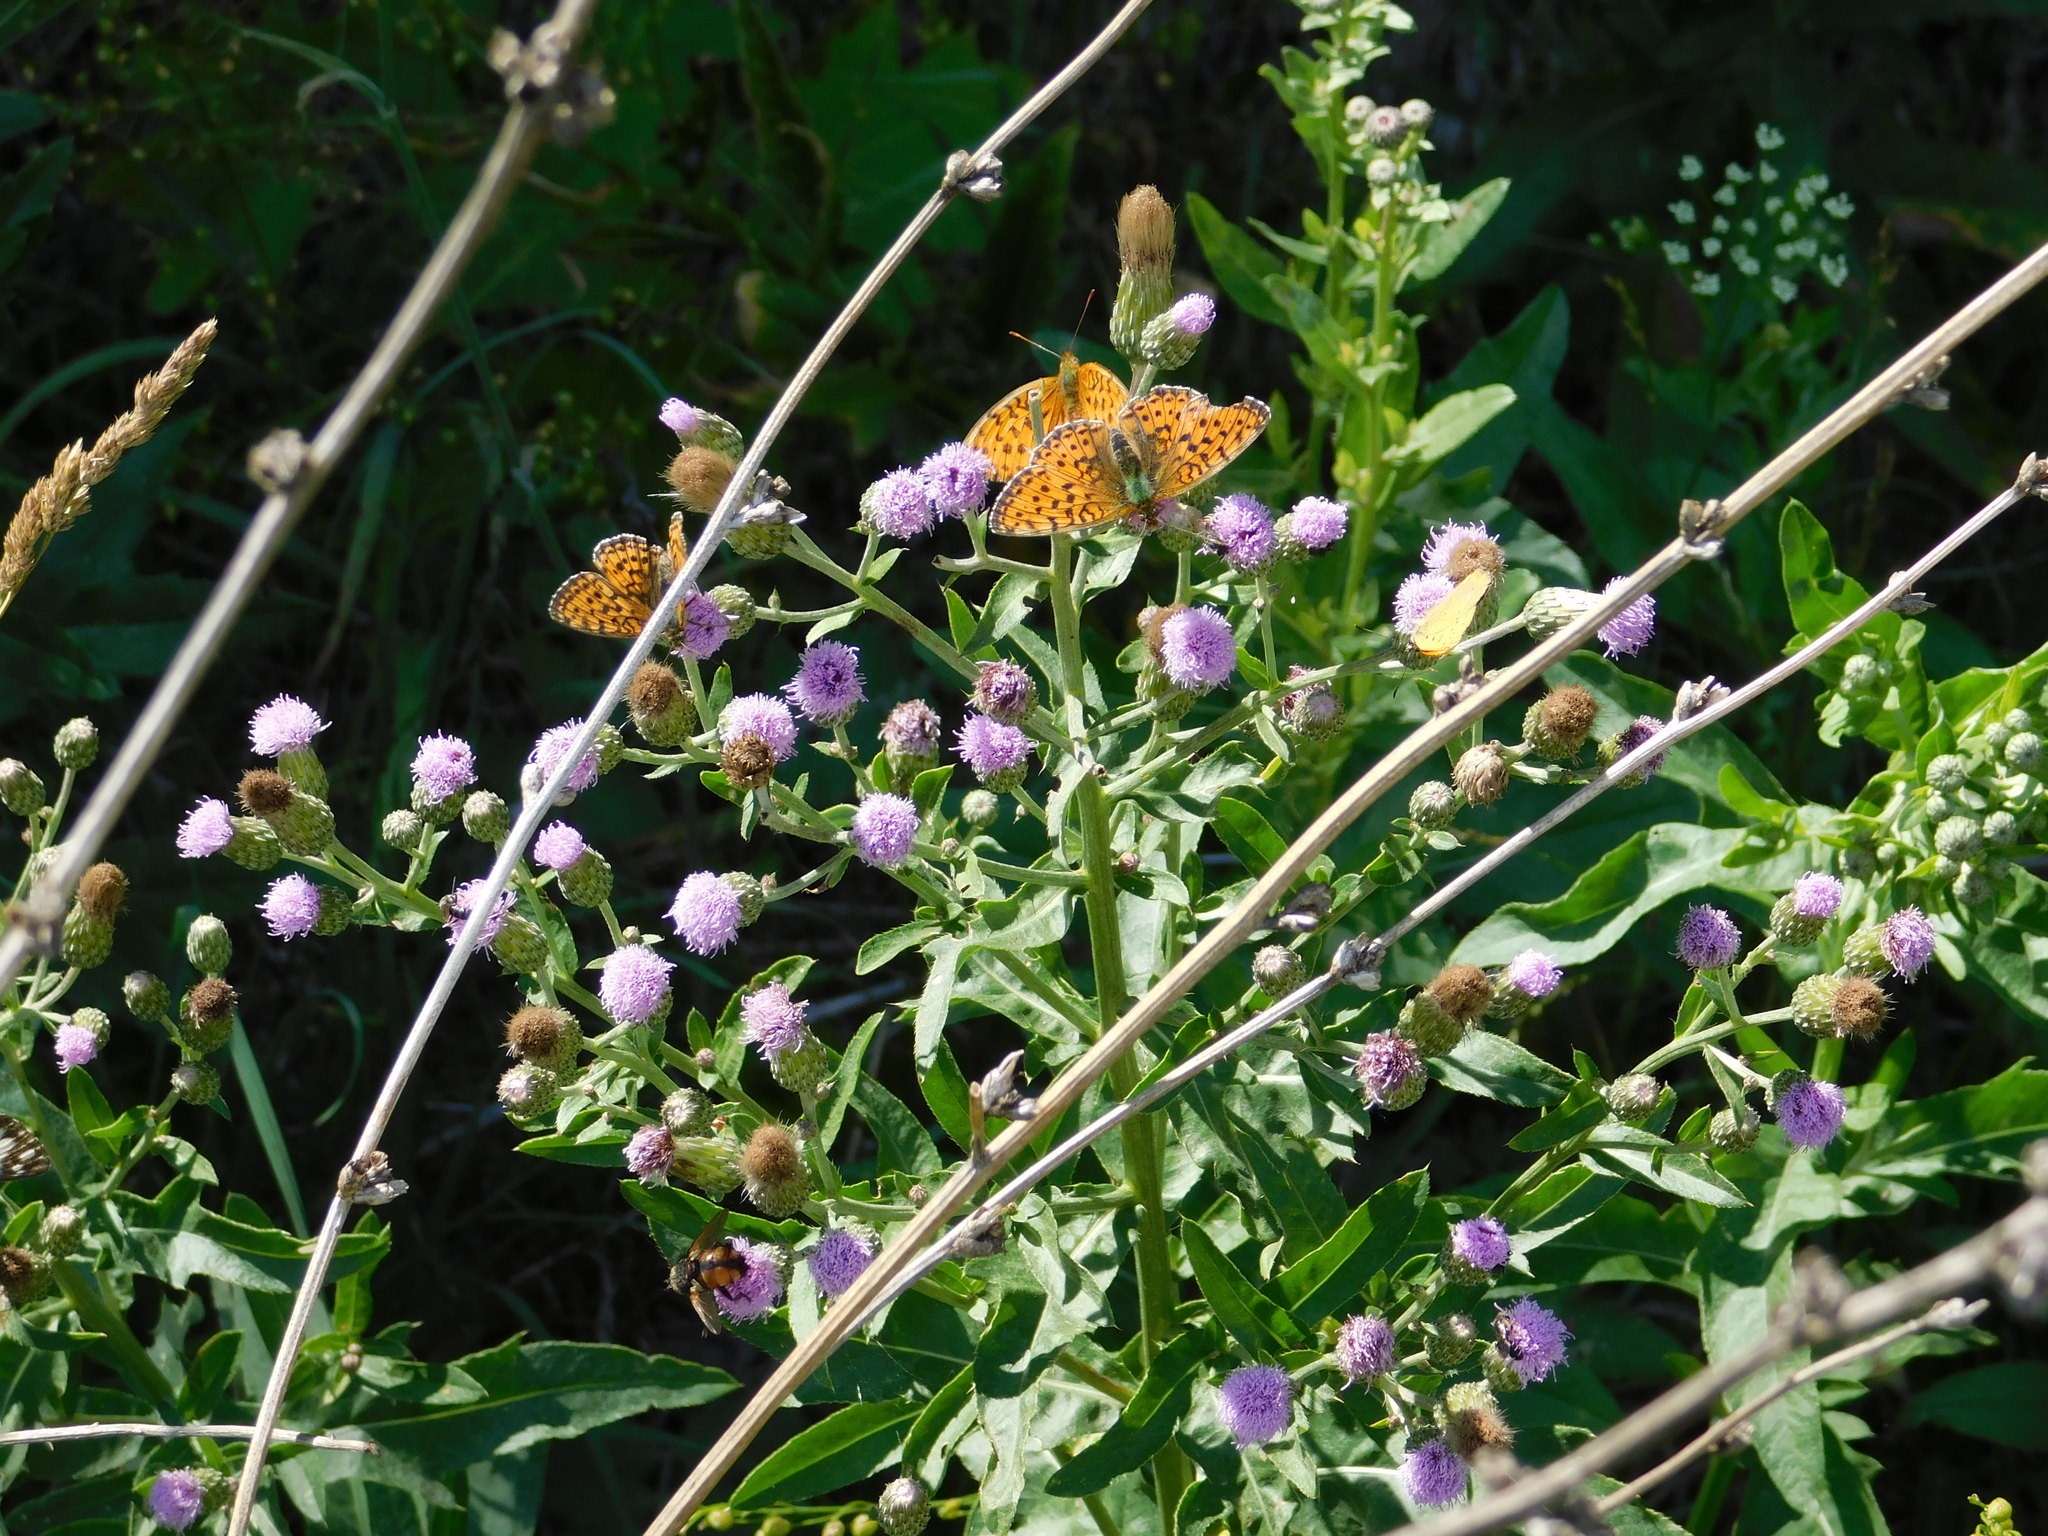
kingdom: Animalia
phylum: Arthropoda
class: Insecta
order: Lepidoptera
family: Nymphalidae
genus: Brenthis
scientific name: Brenthis ino
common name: Lesser marbled fritillary
